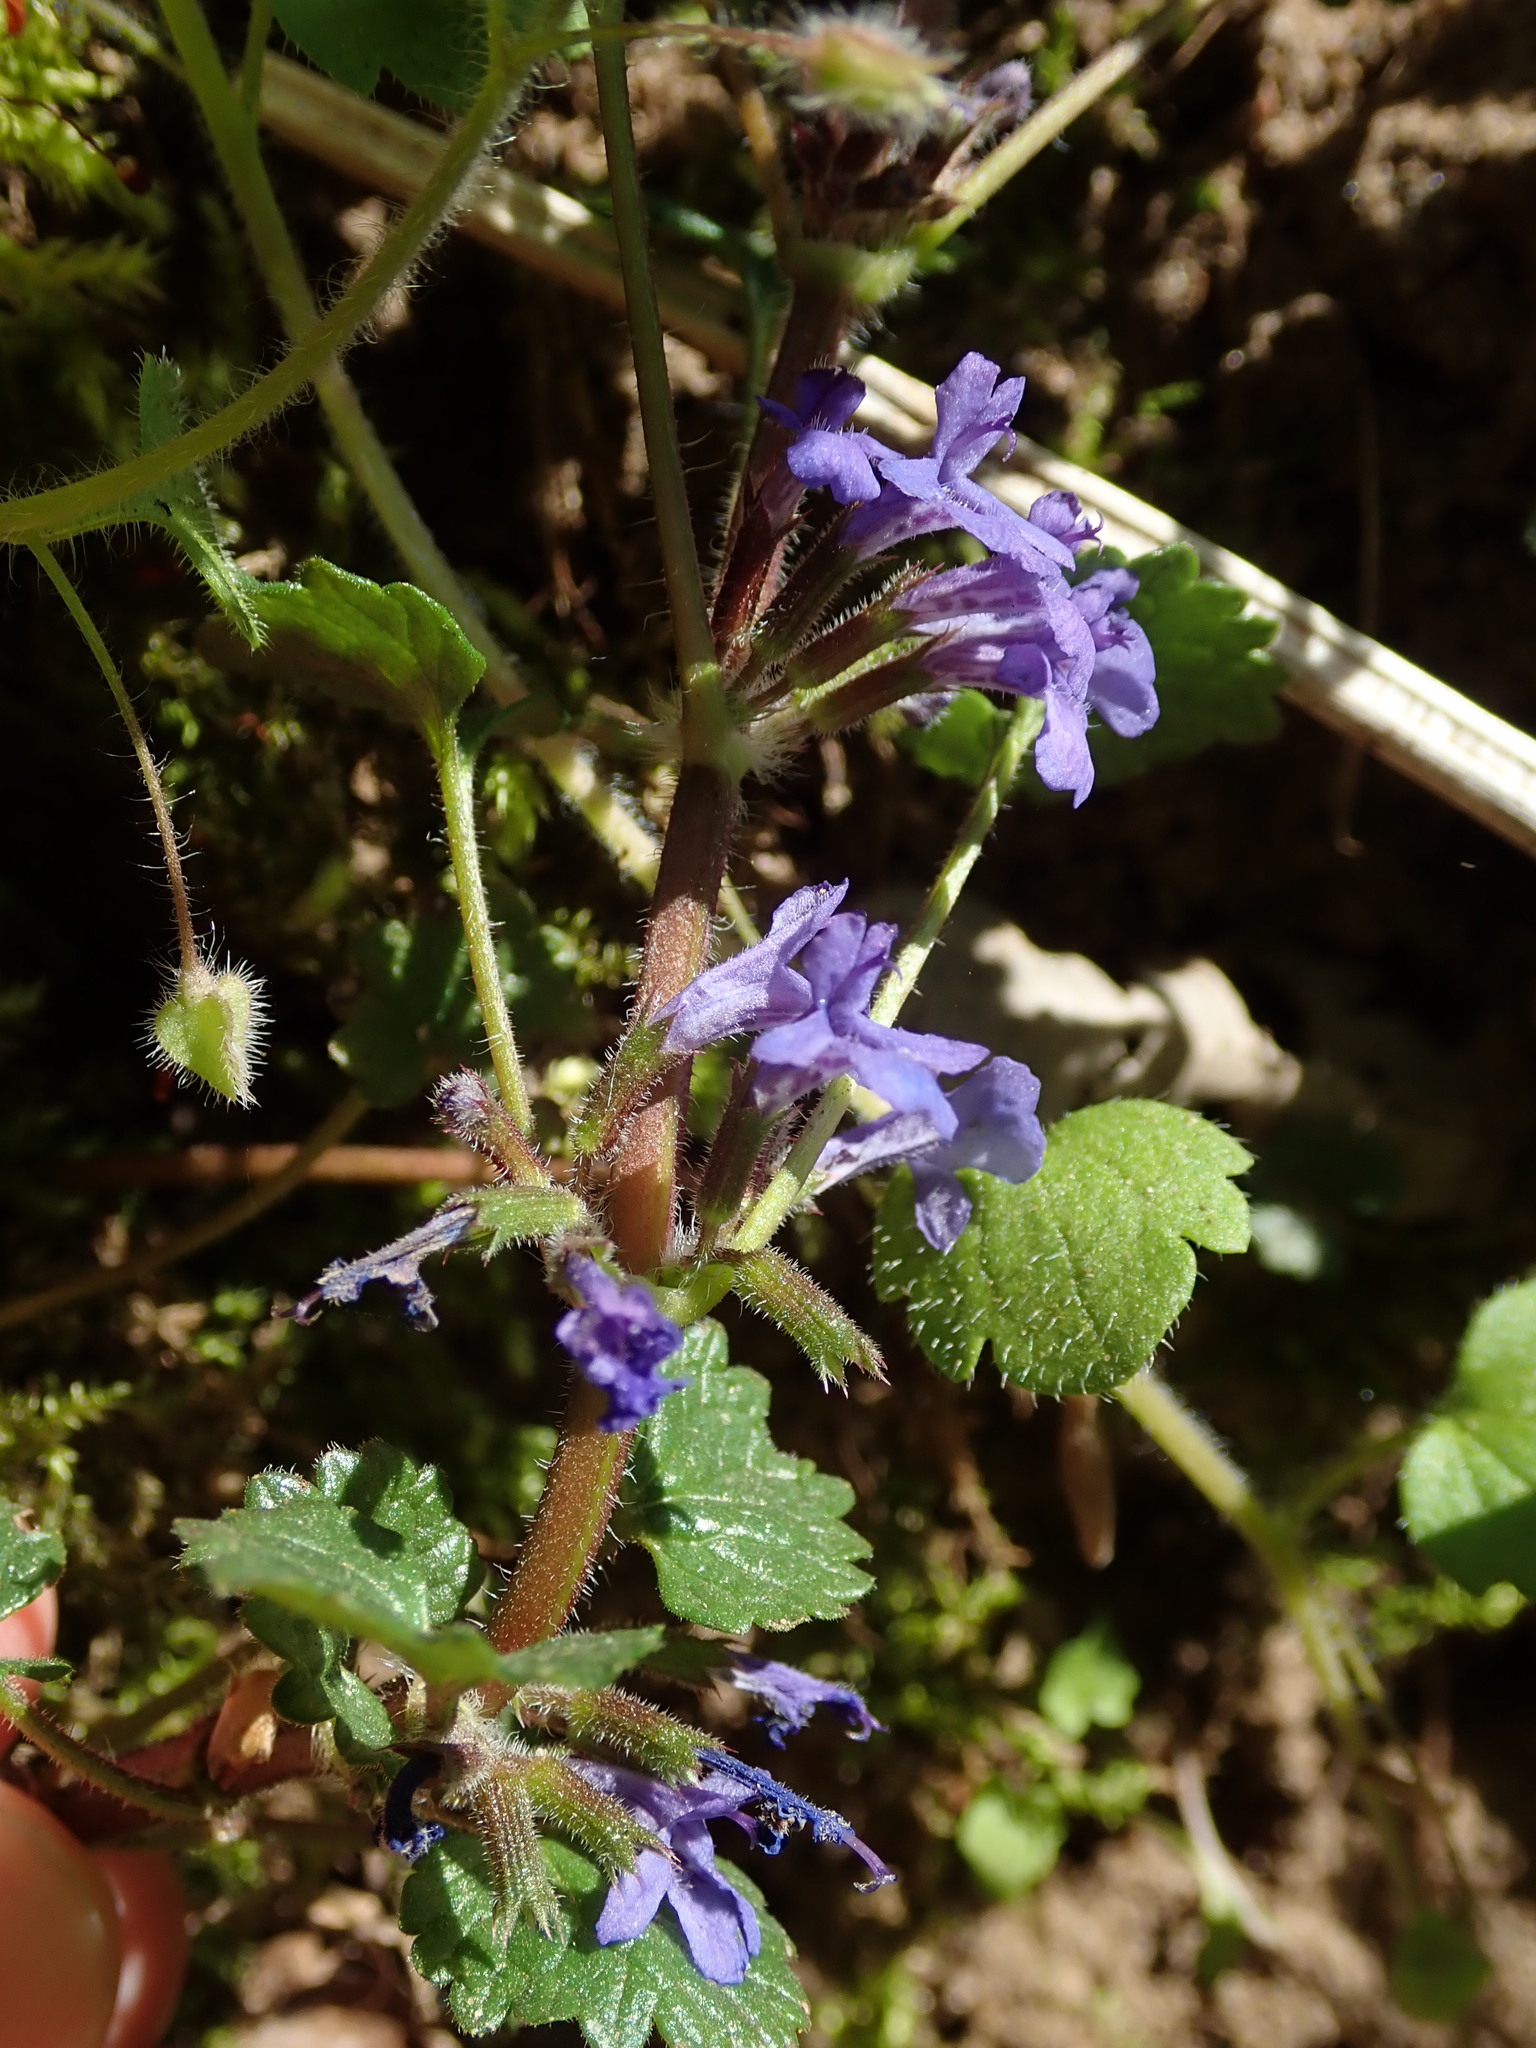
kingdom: Plantae
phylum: Tracheophyta
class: Magnoliopsida
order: Lamiales
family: Lamiaceae
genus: Glechoma
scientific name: Glechoma hederacea
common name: Ground ivy
